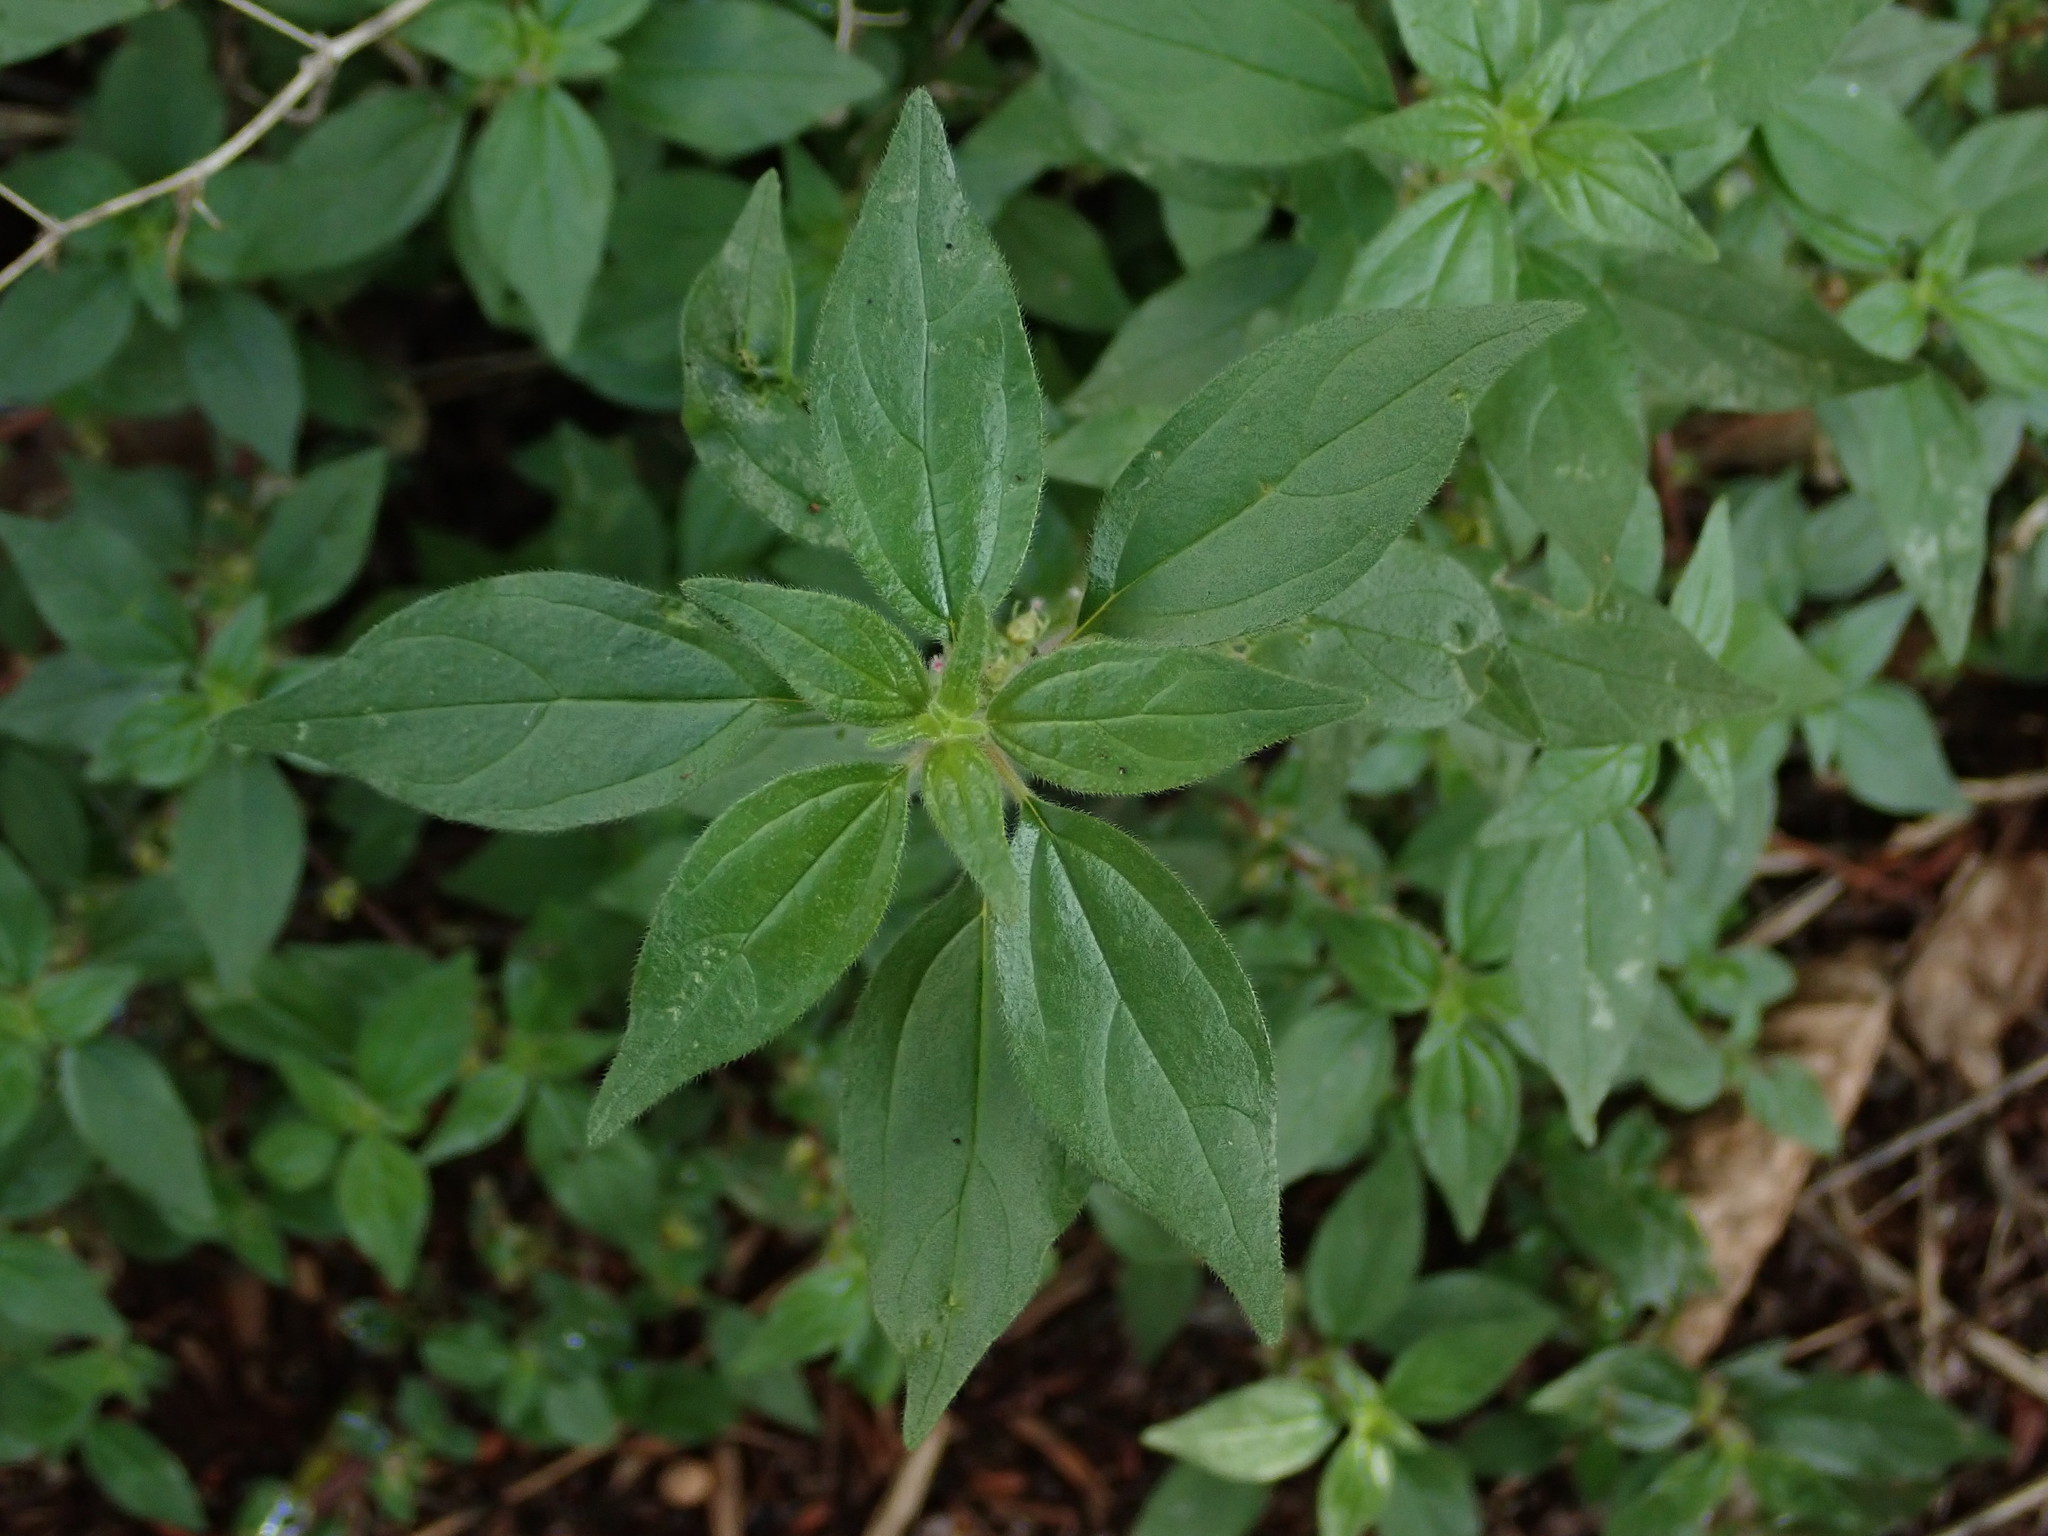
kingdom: Plantae
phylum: Tracheophyta
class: Magnoliopsida
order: Rosales
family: Urticaceae
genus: Parietaria
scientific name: Parietaria judaica
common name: Pellitory-of-the-wall
